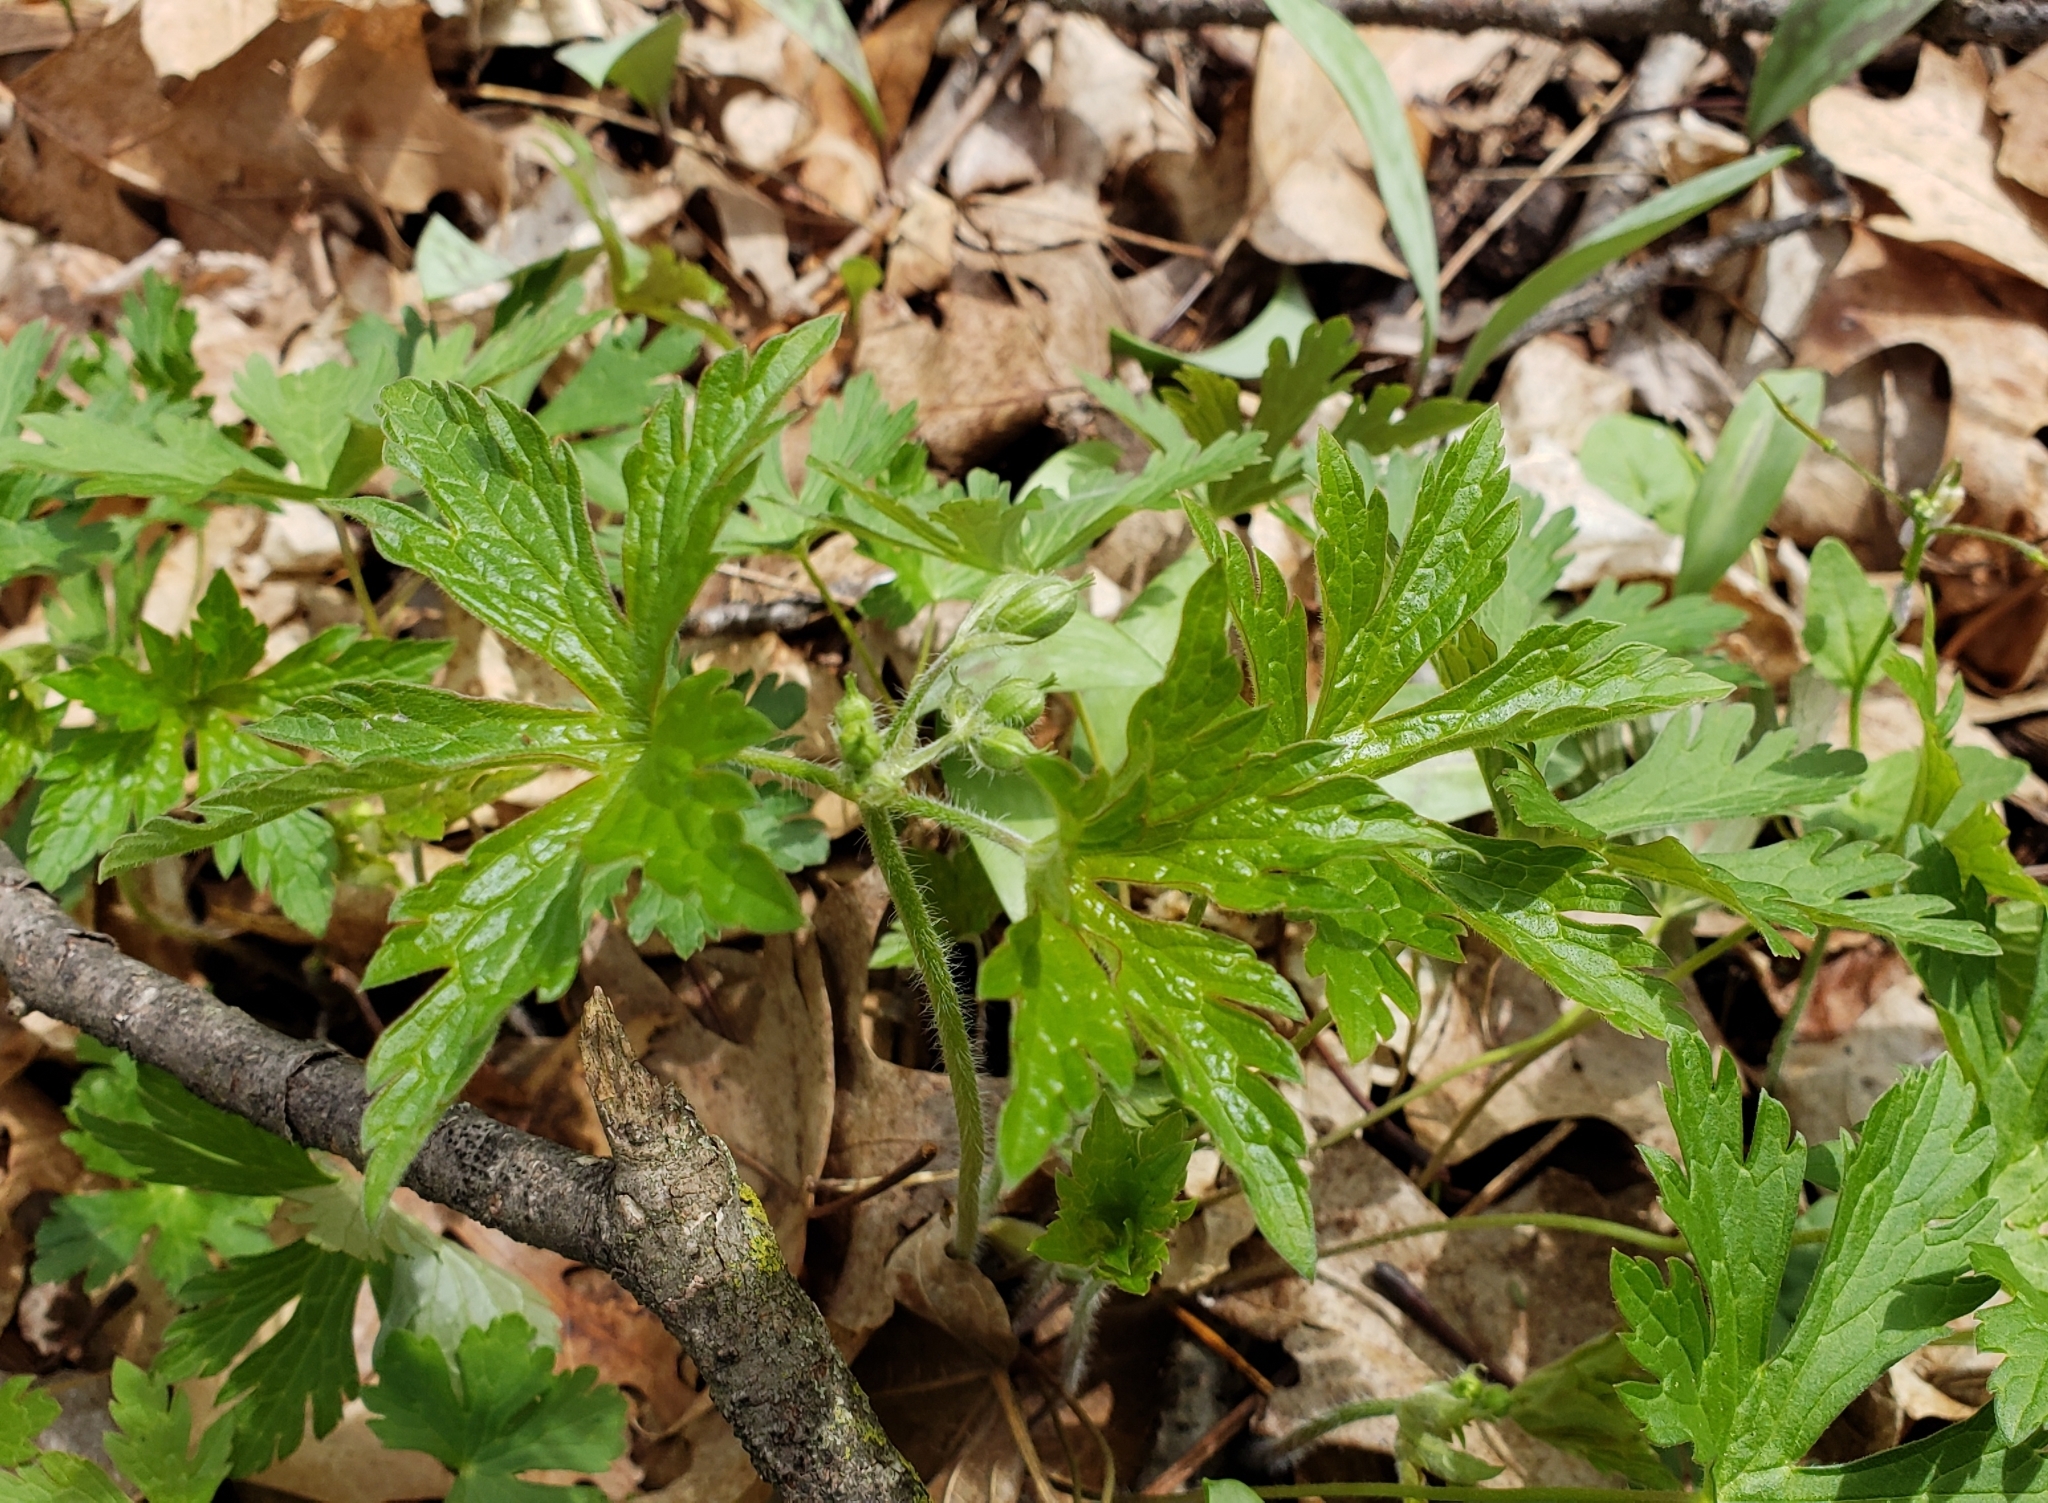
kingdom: Plantae
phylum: Tracheophyta
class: Magnoliopsida
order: Geraniales
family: Geraniaceae
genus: Geranium
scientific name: Geranium maculatum
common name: Spotted geranium
